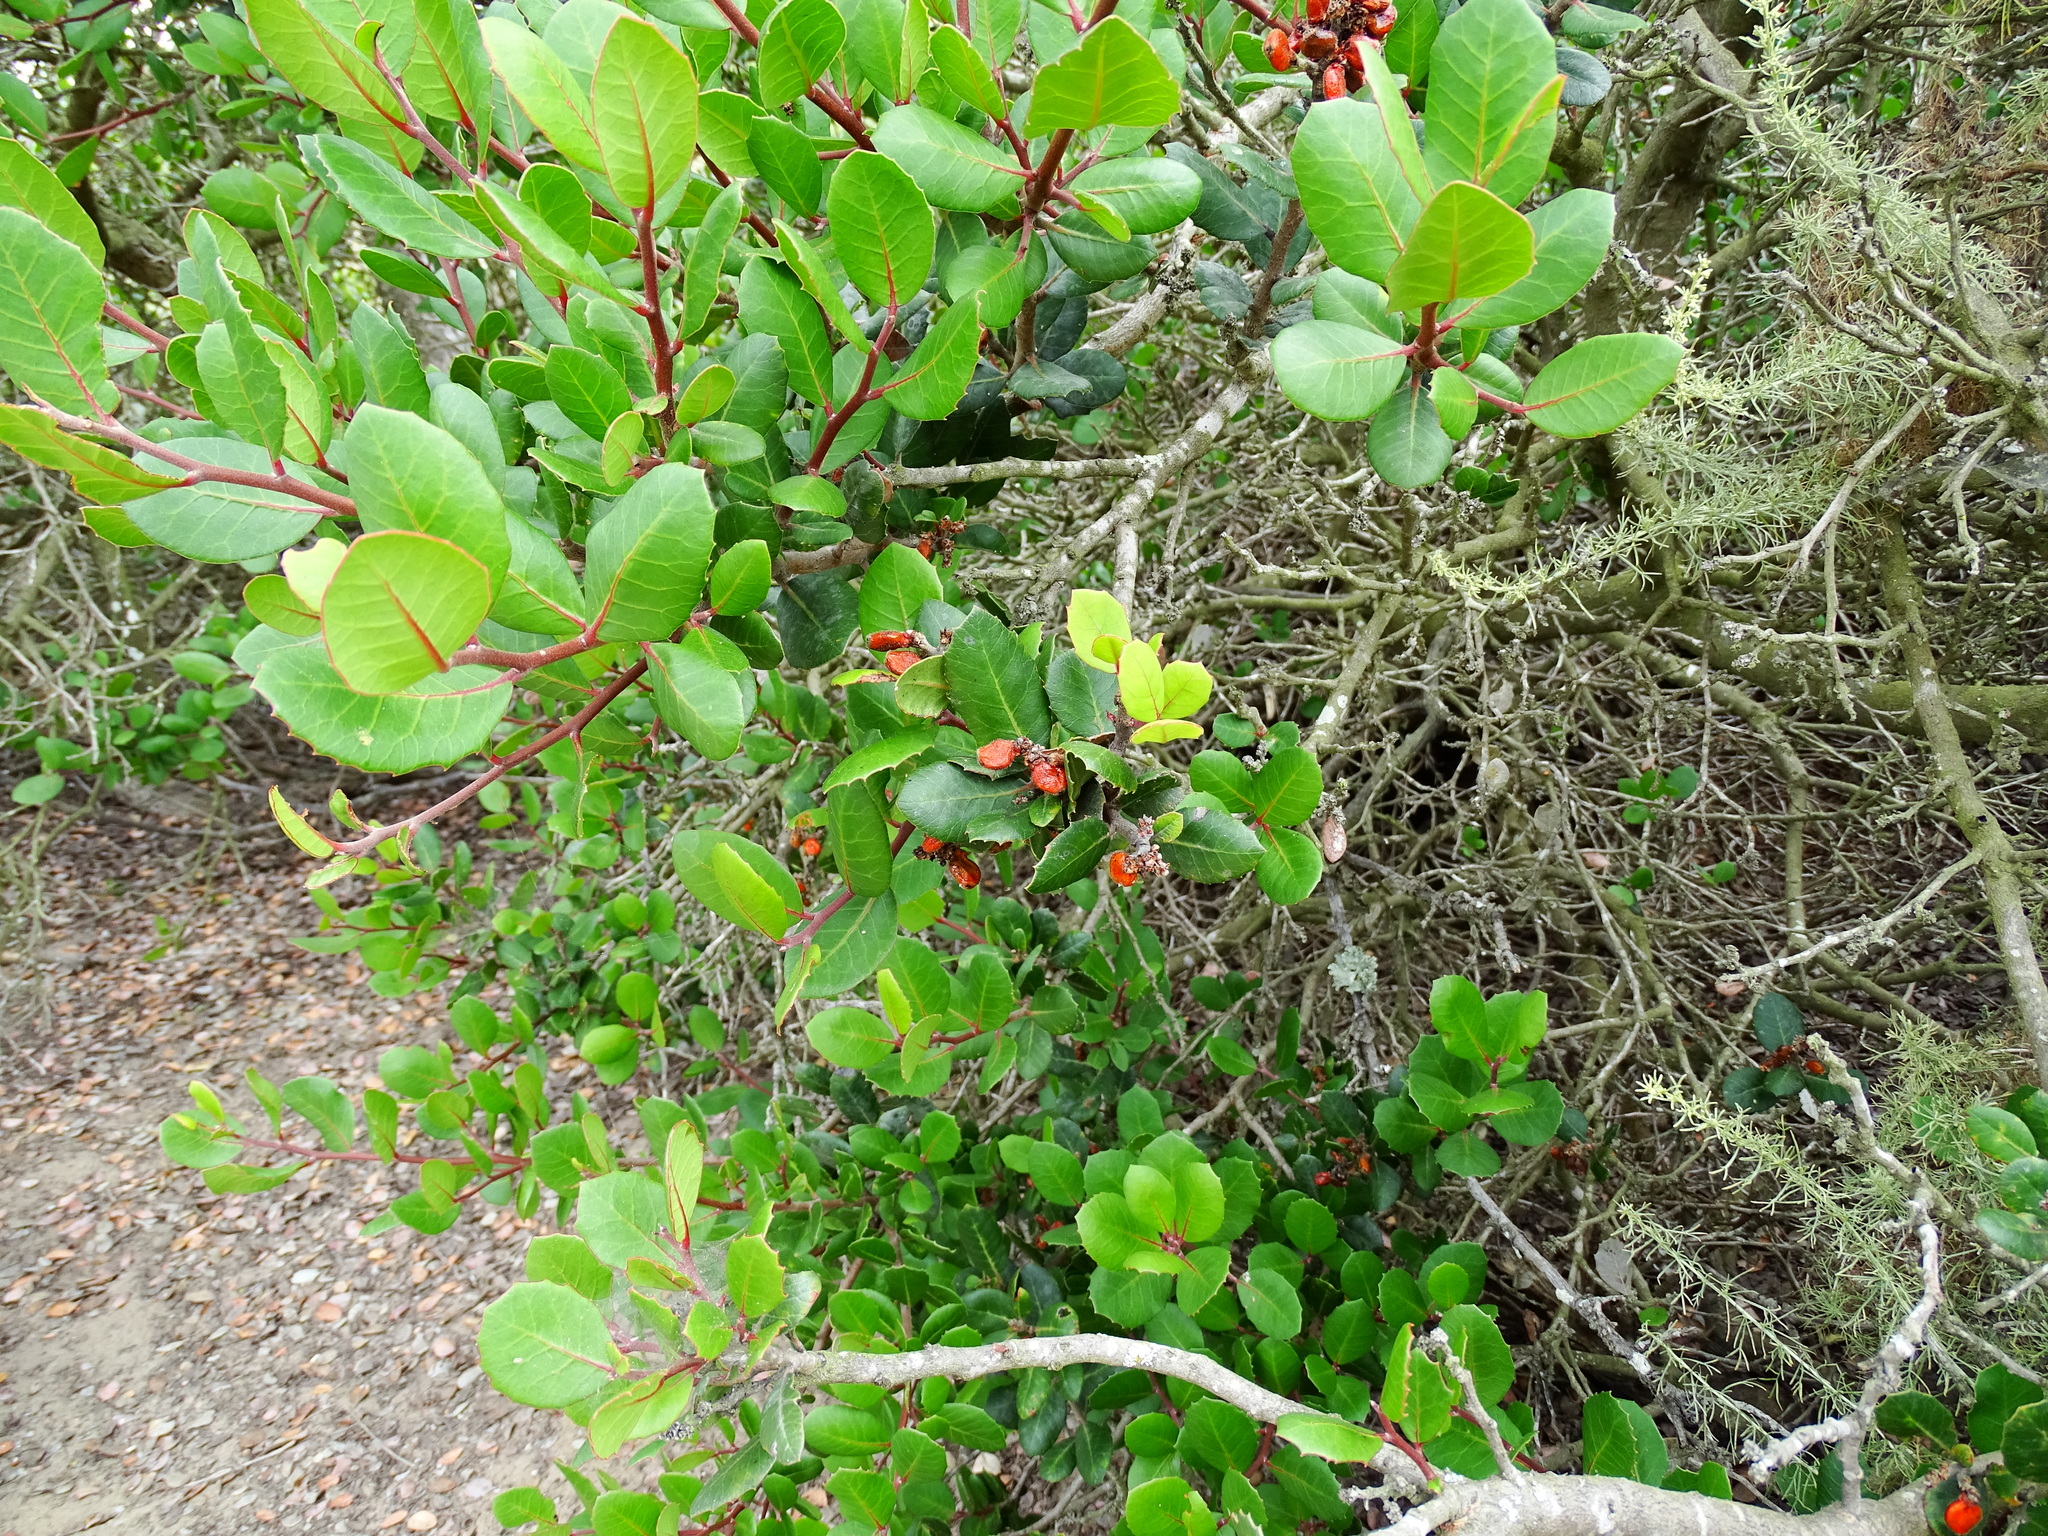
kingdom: Plantae
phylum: Tracheophyta
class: Magnoliopsida
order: Sapindales
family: Anacardiaceae
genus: Rhus
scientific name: Rhus integrifolia
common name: Lemonade sumac
